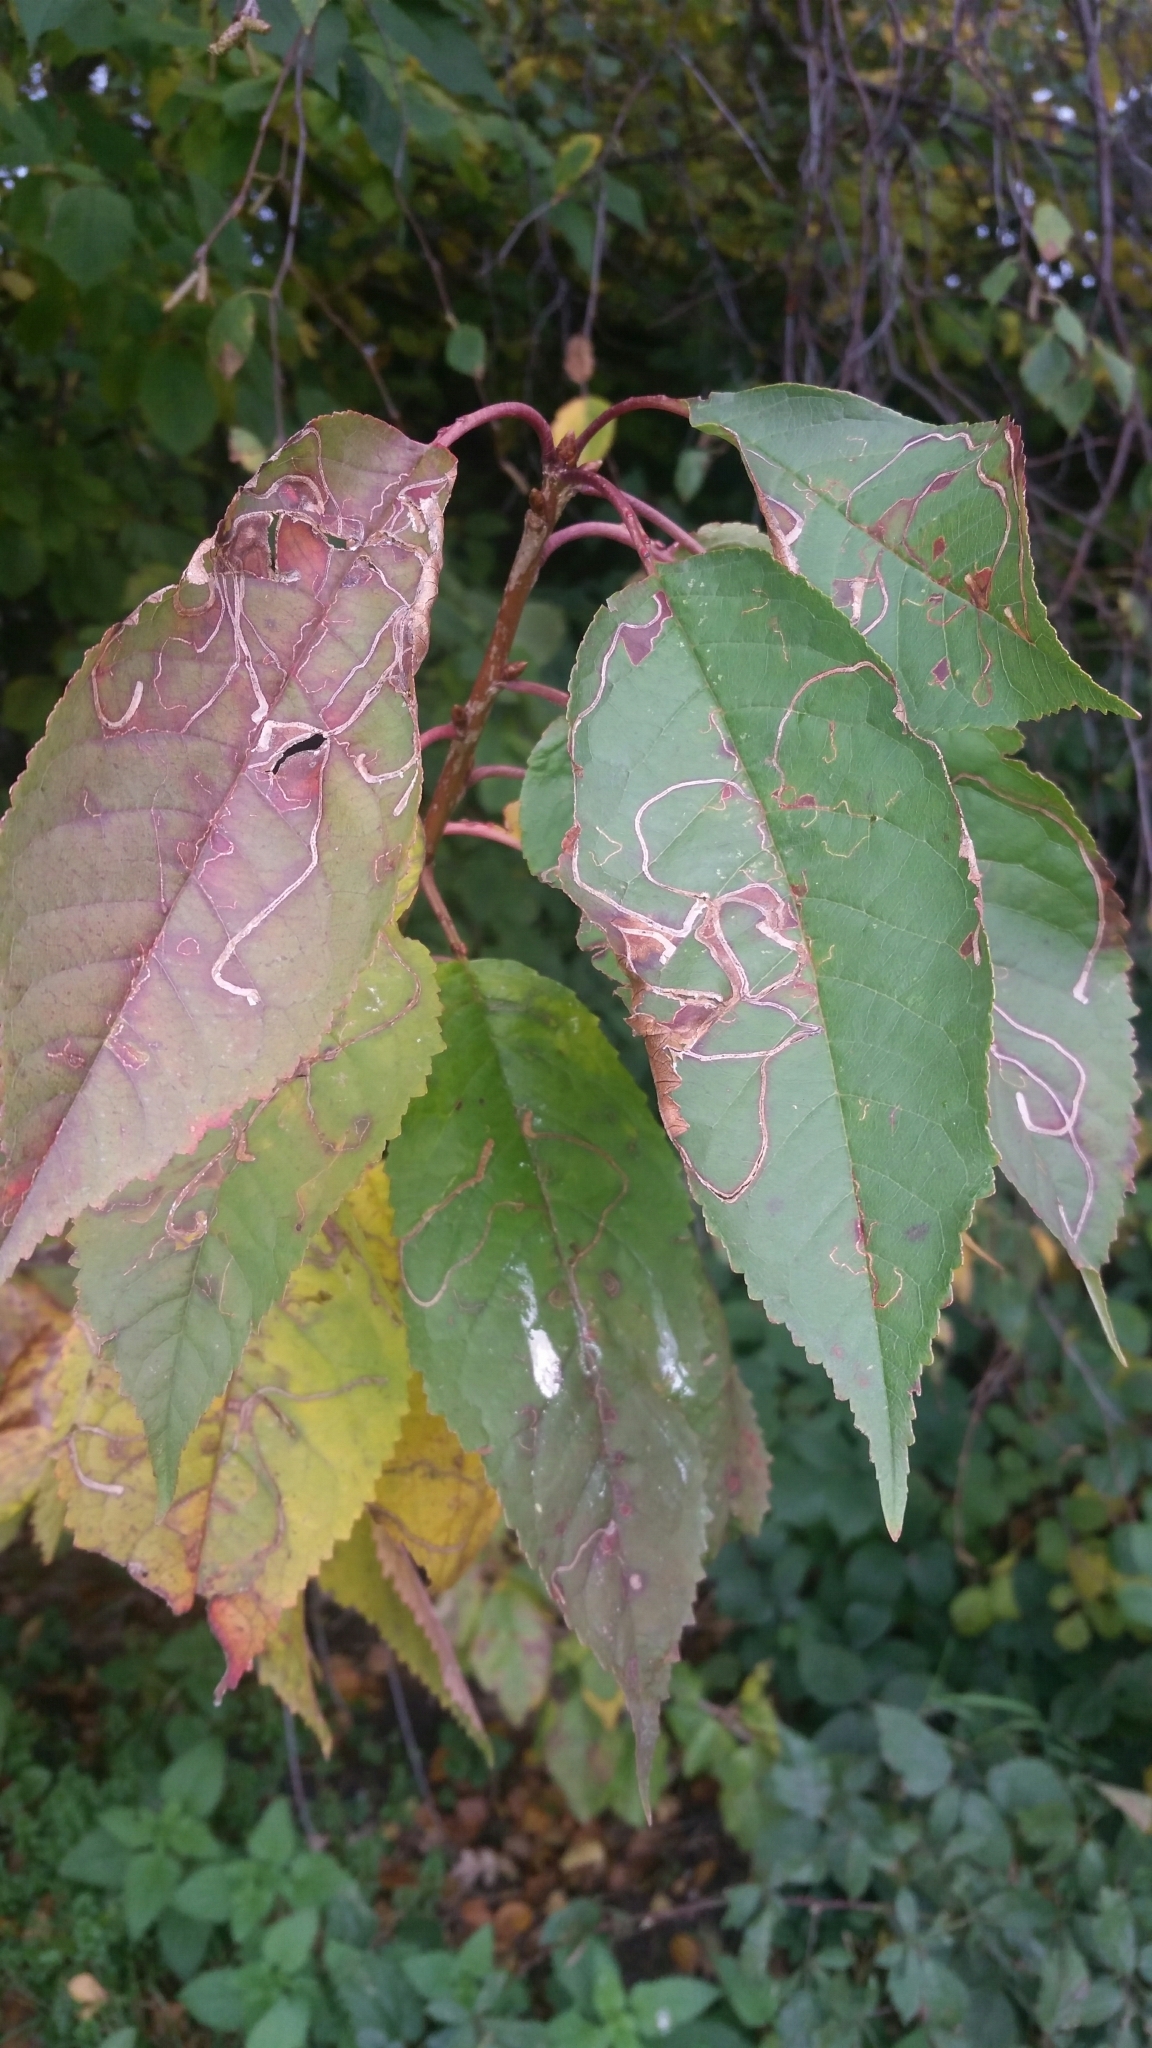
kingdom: Animalia
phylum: Arthropoda
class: Insecta
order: Lepidoptera
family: Lyonetiidae
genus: Lyonetia
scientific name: Lyonetia clerkella
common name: Apple leaf miner
